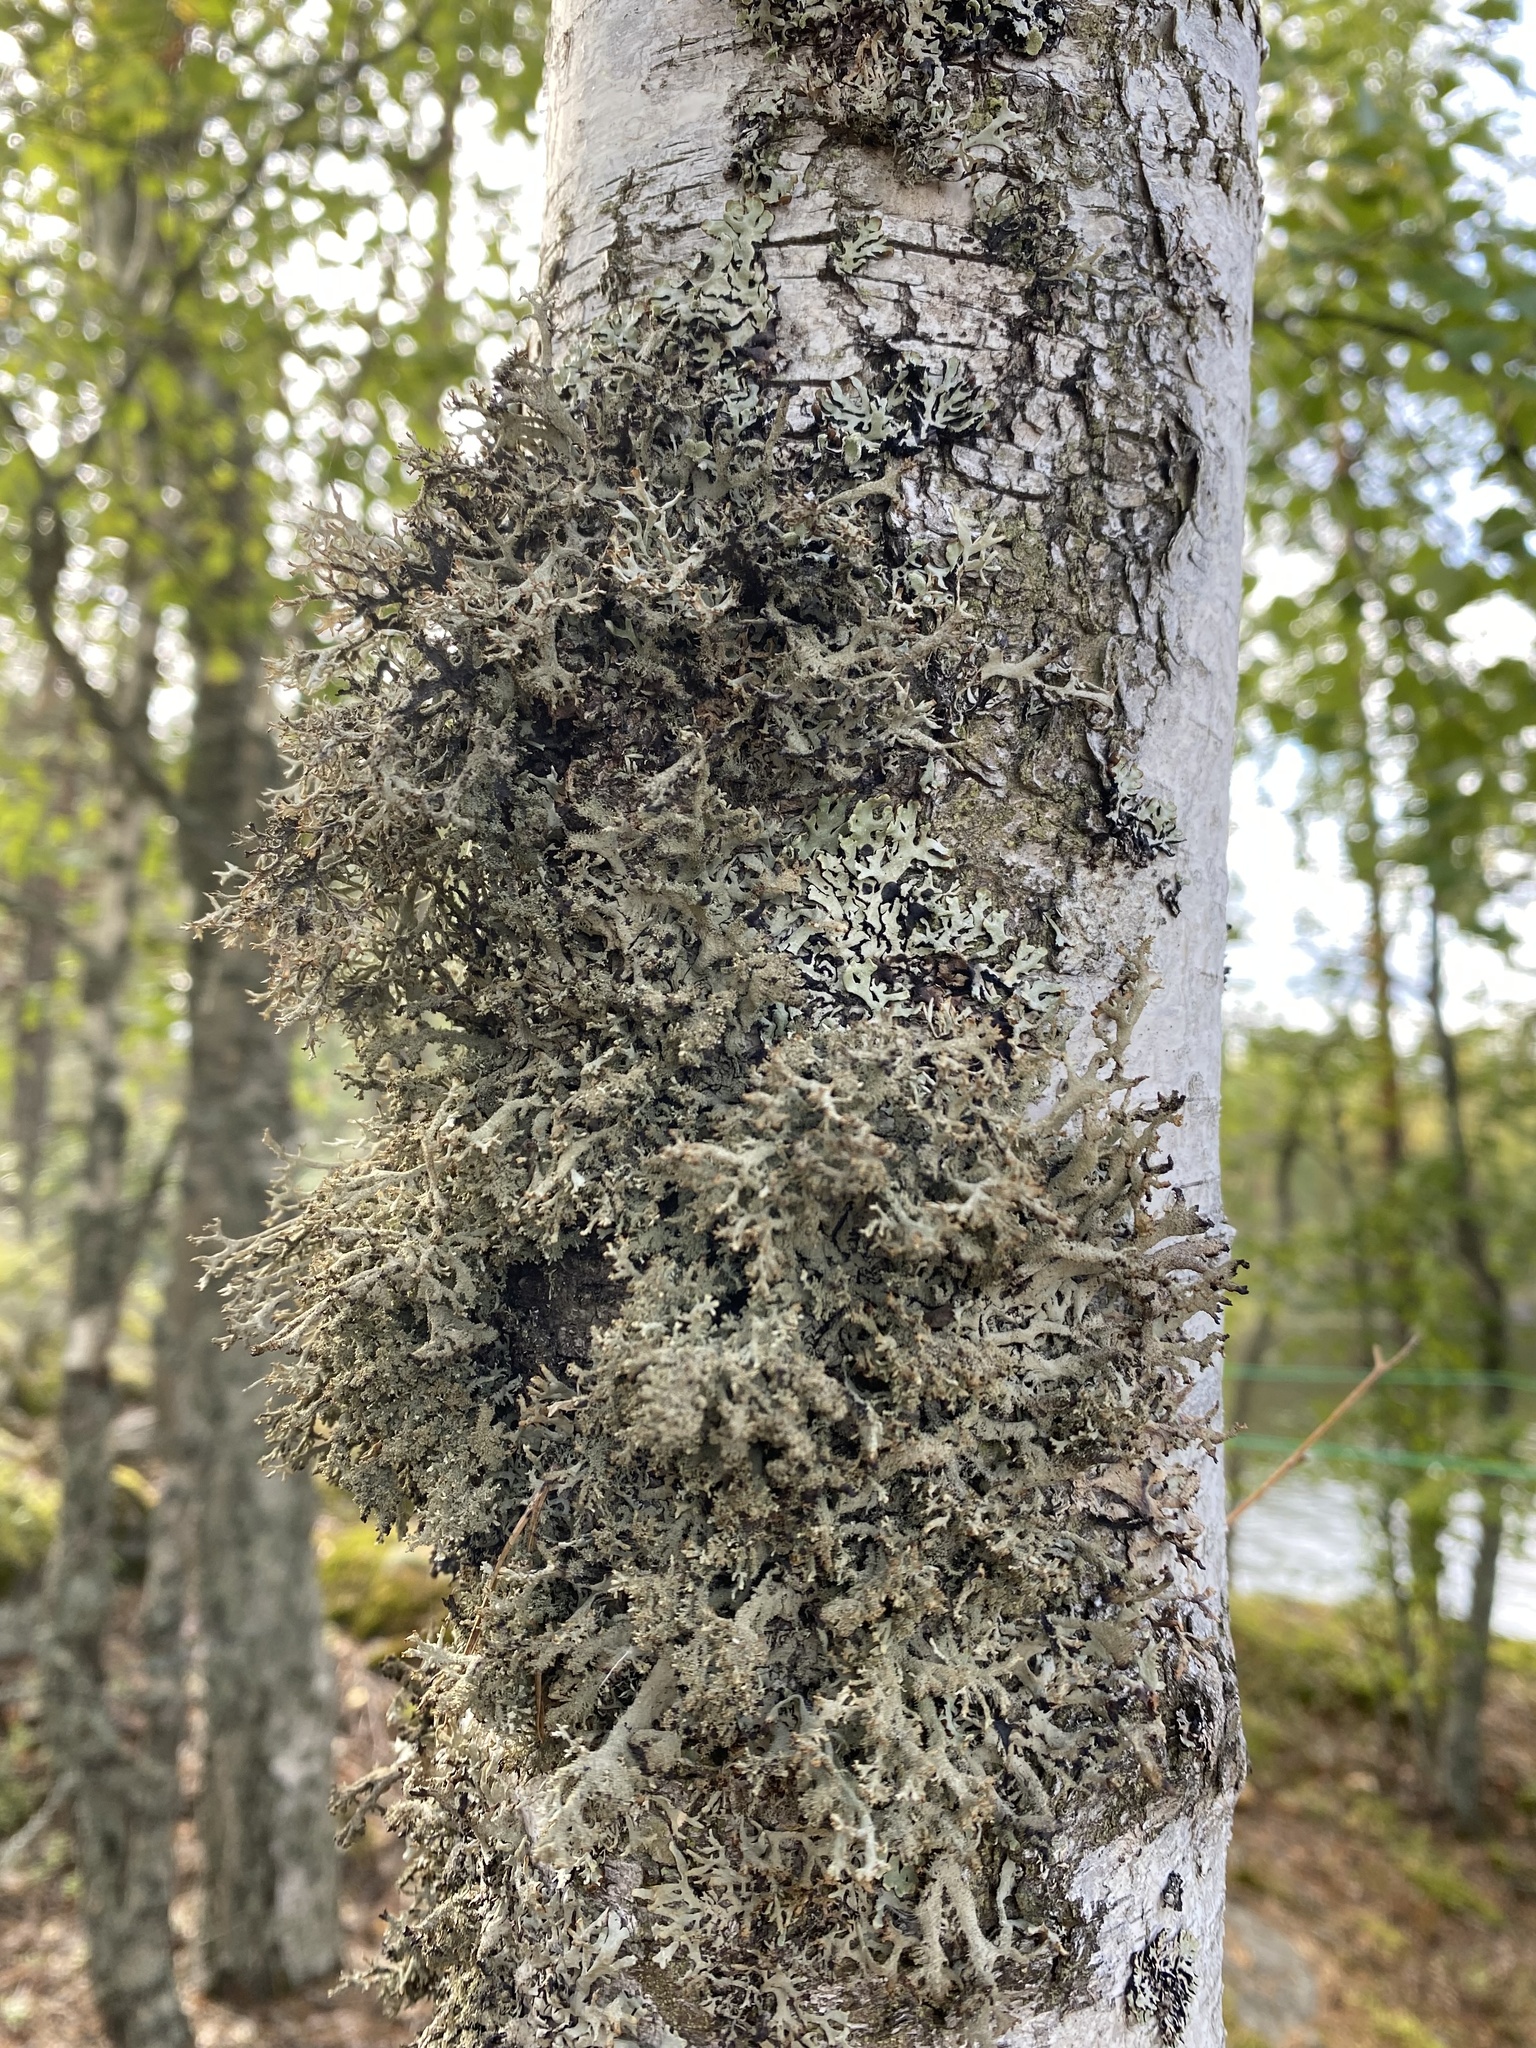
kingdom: Fungi
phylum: Ascomycota
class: Lecanoromycetes
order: Lecanorales
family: Parmeliaceae
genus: Pseudevernia
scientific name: Pseudevernia furfuracea
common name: Tree moss
